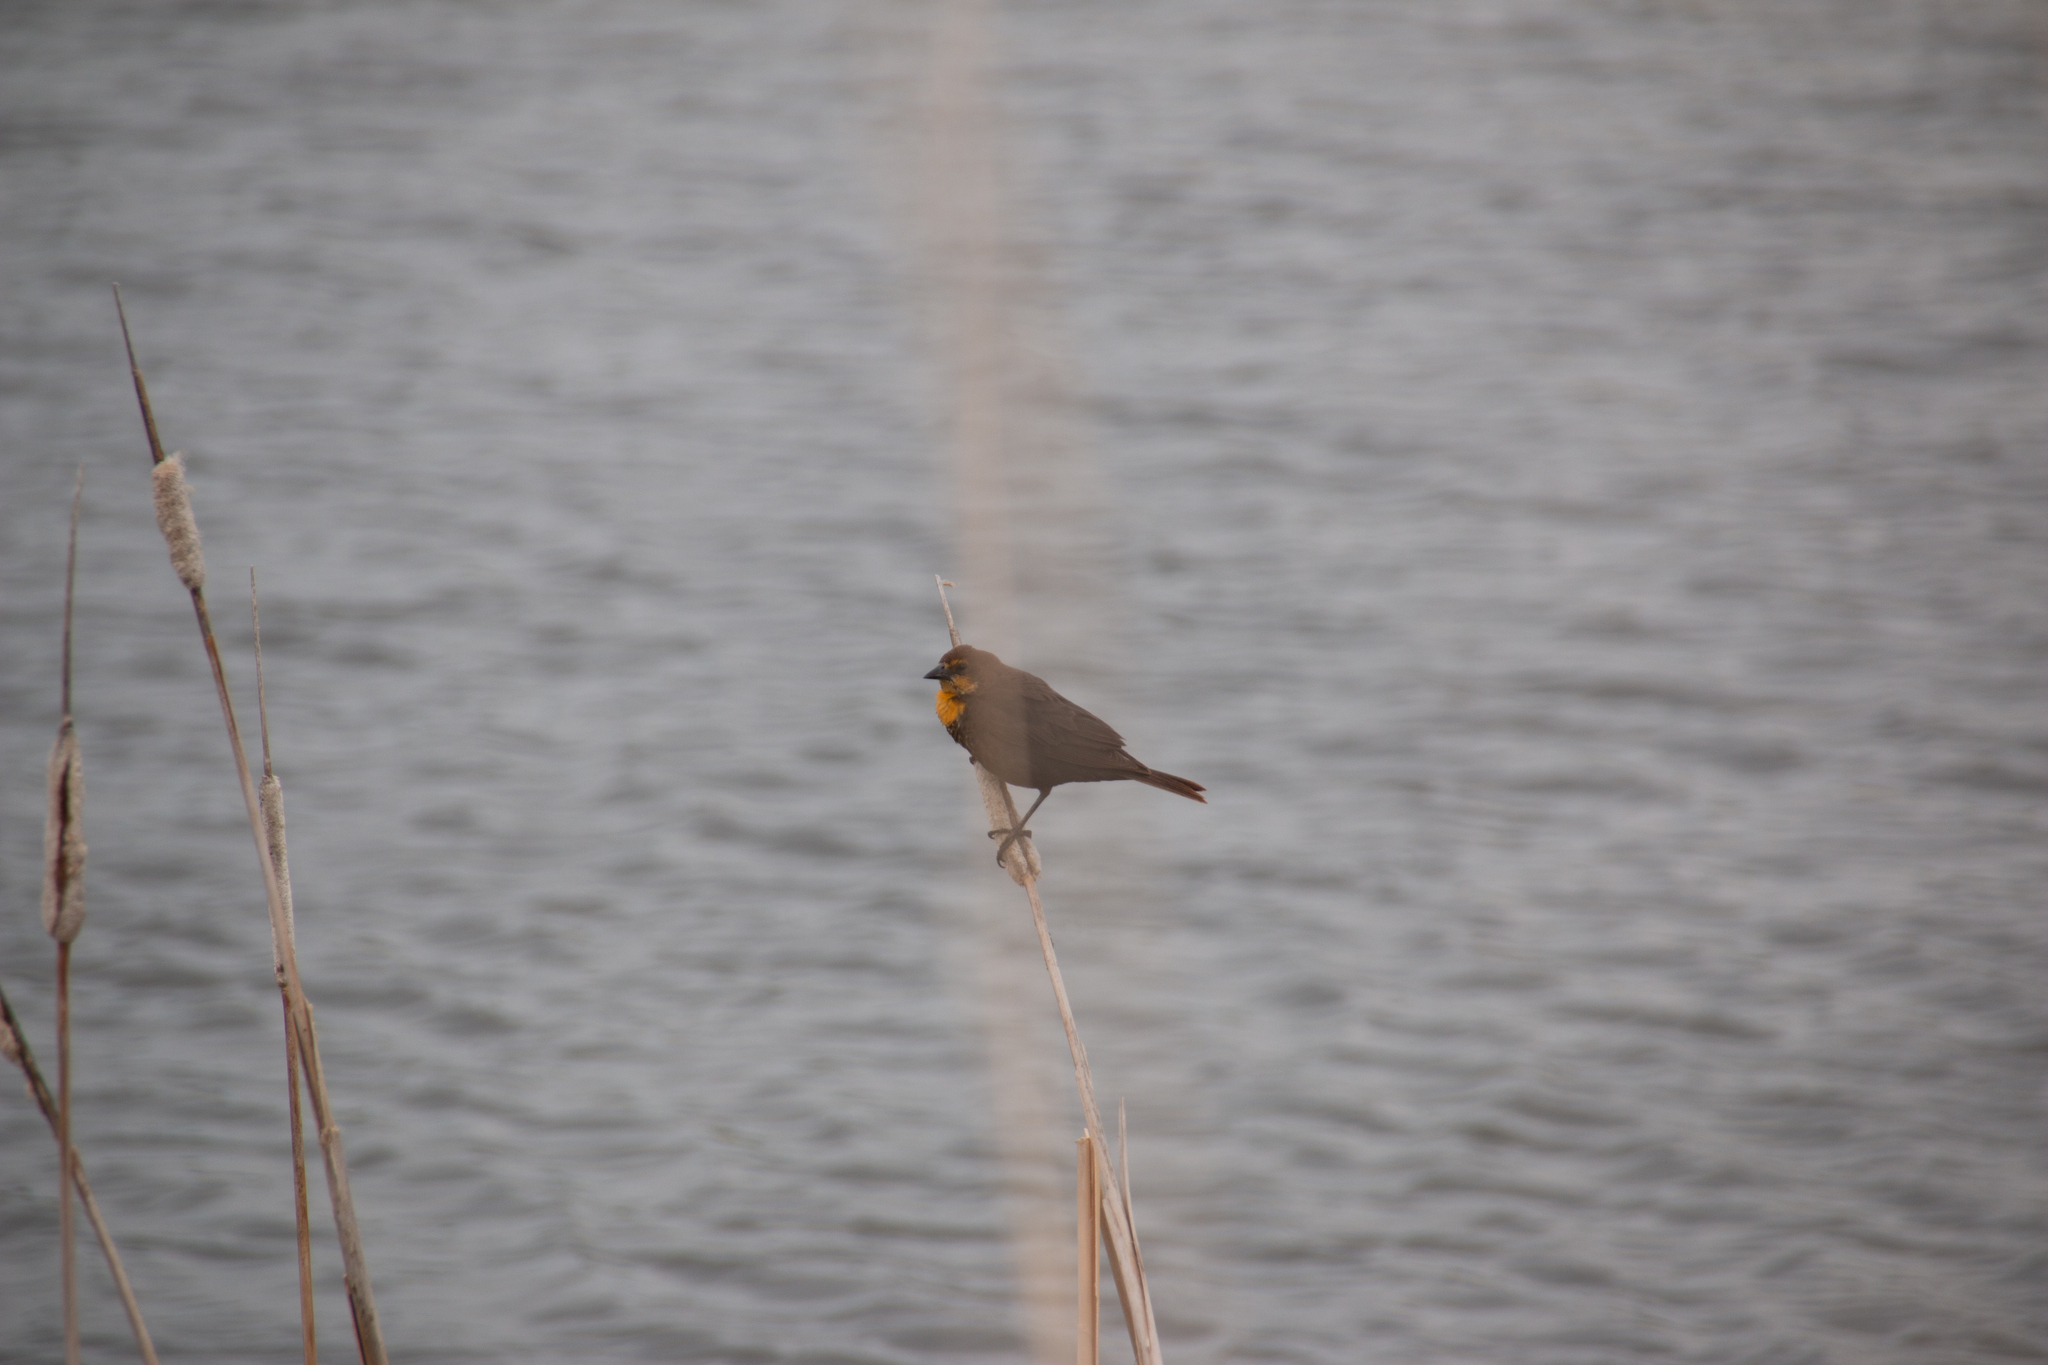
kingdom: Animalia
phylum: Chordata
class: Aves
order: Passeriformes
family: Icteridae
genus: Xanthocephalus
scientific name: Xanthocephalus xanthocephalus
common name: Yellow-headed blackbird
